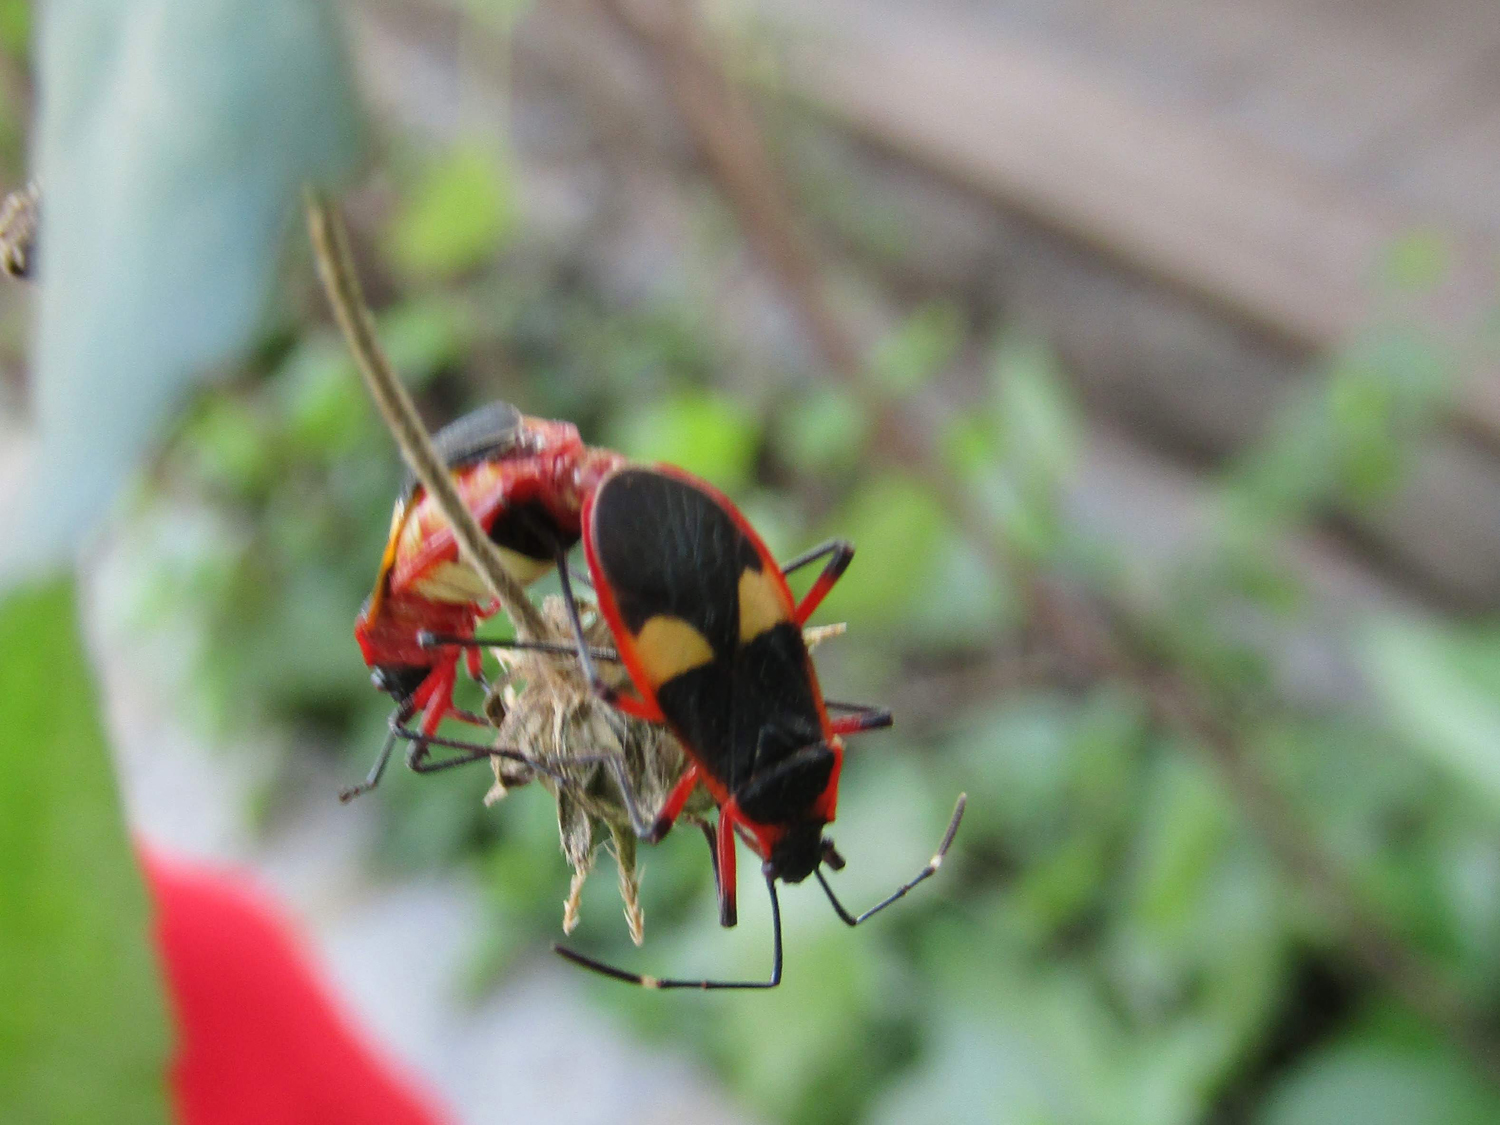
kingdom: Animalia
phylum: Arthropoda
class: Insecta
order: Hemiptera
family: Pyrrhocoridae
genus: Dysdercus
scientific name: Dysdercus albofasciatus
